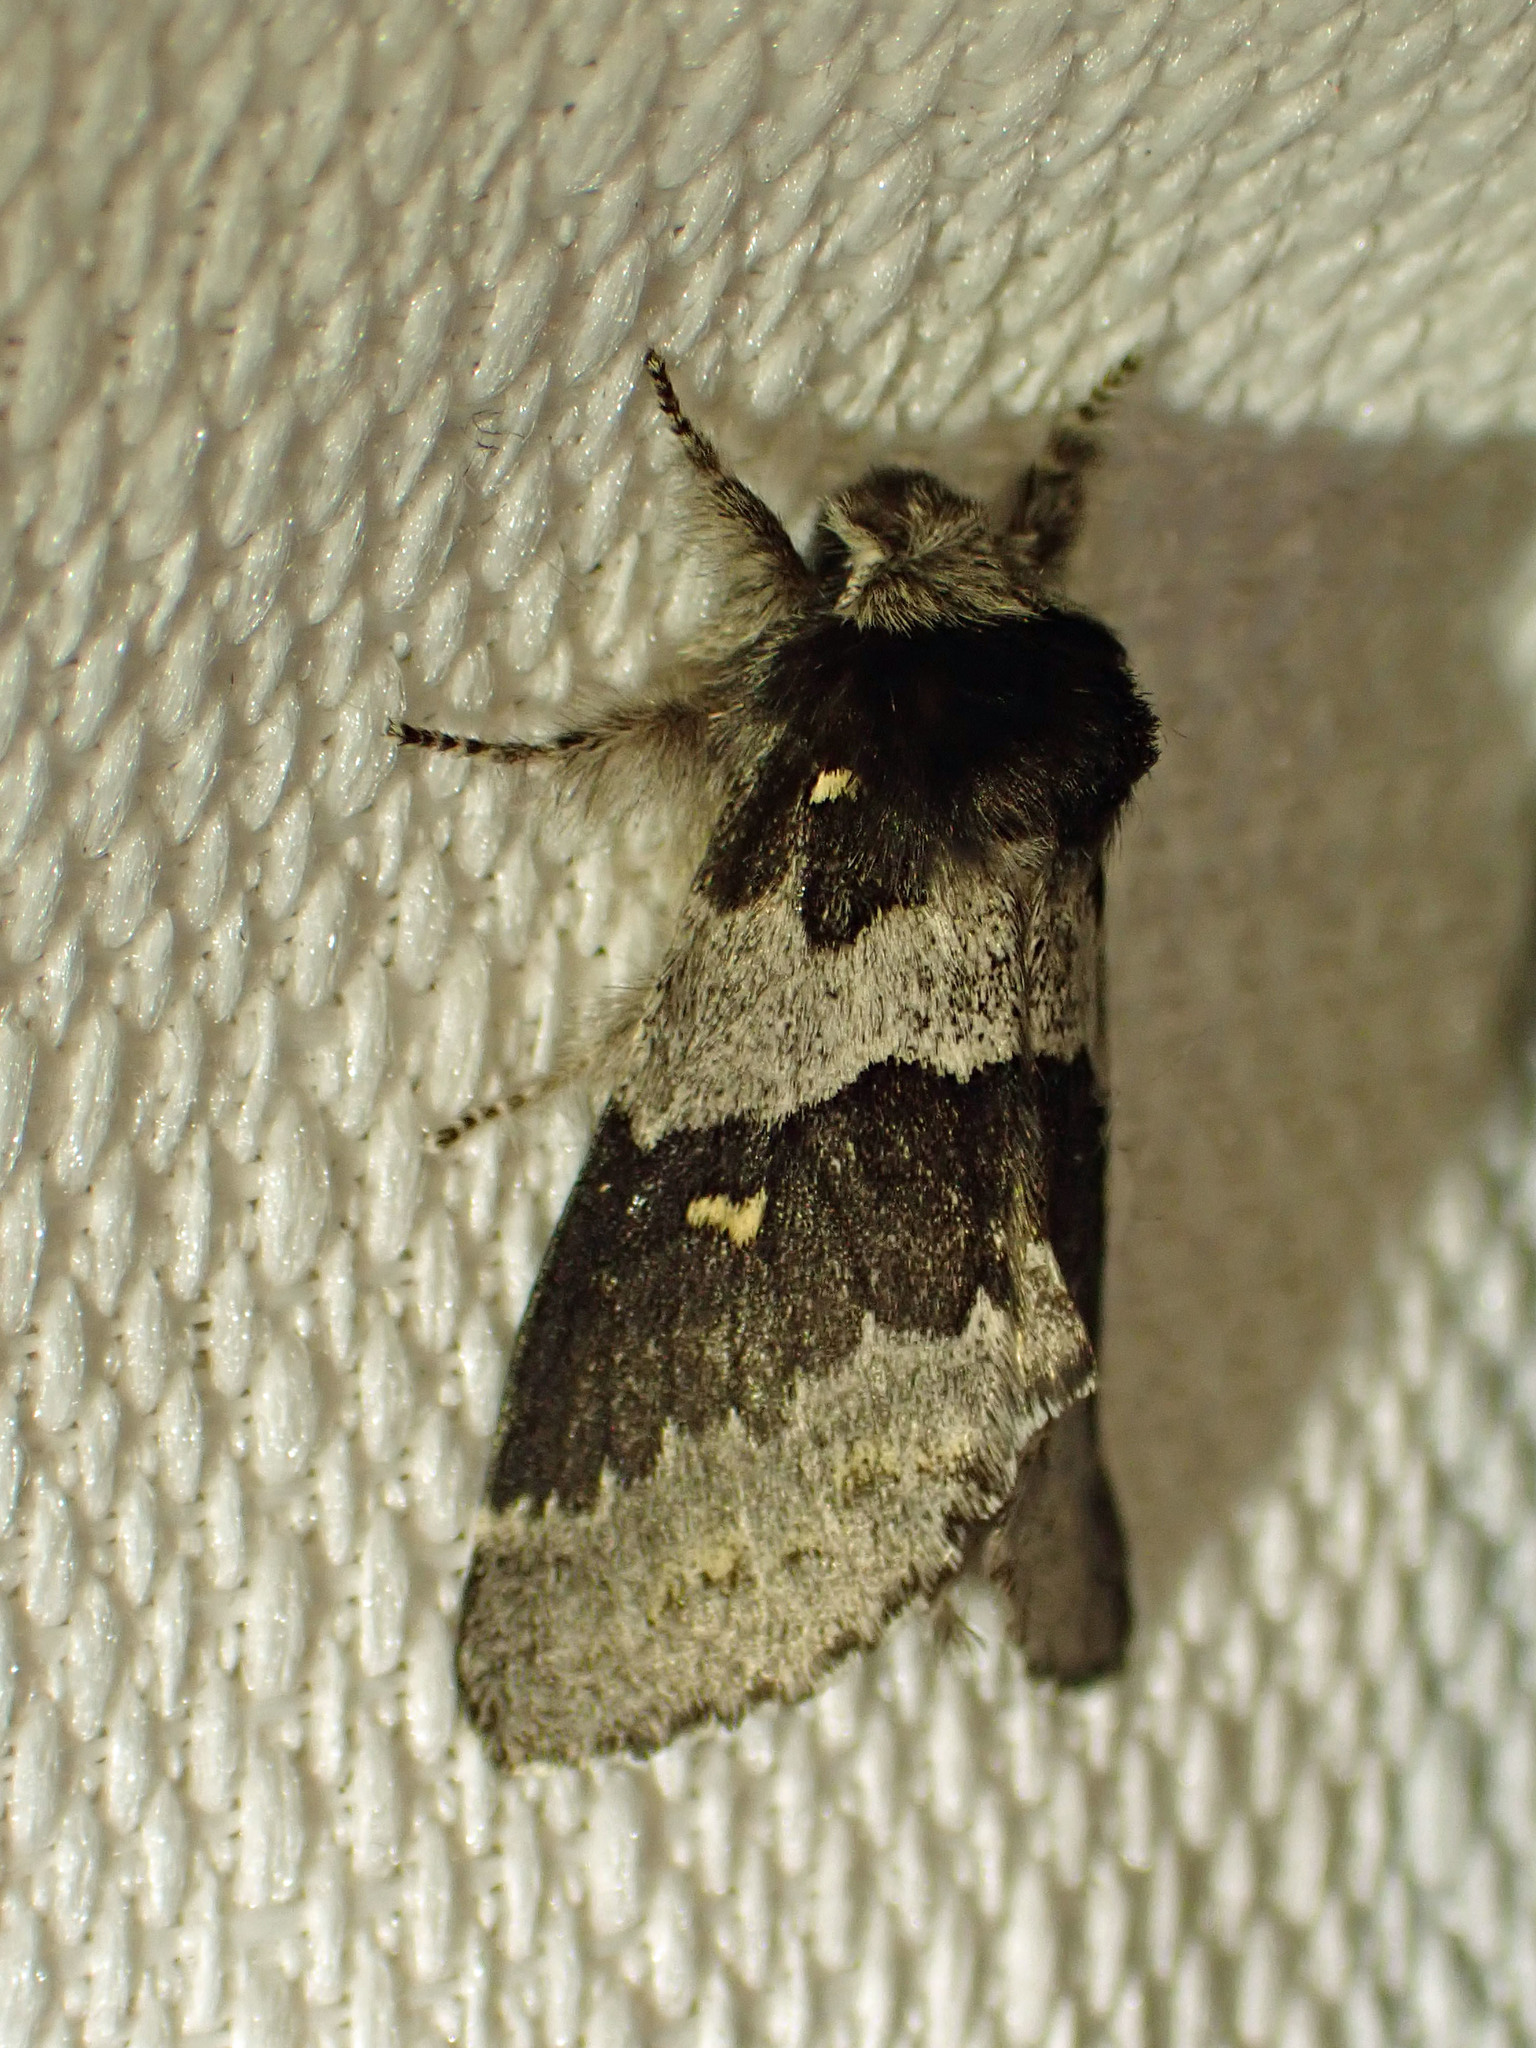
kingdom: Animalia
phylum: Arthropoda
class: Insecta
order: Lepidoptera
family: Notodontidae
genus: Gluphisia
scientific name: Gluphisia avimacula
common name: Four-spotted gluphisia moth
